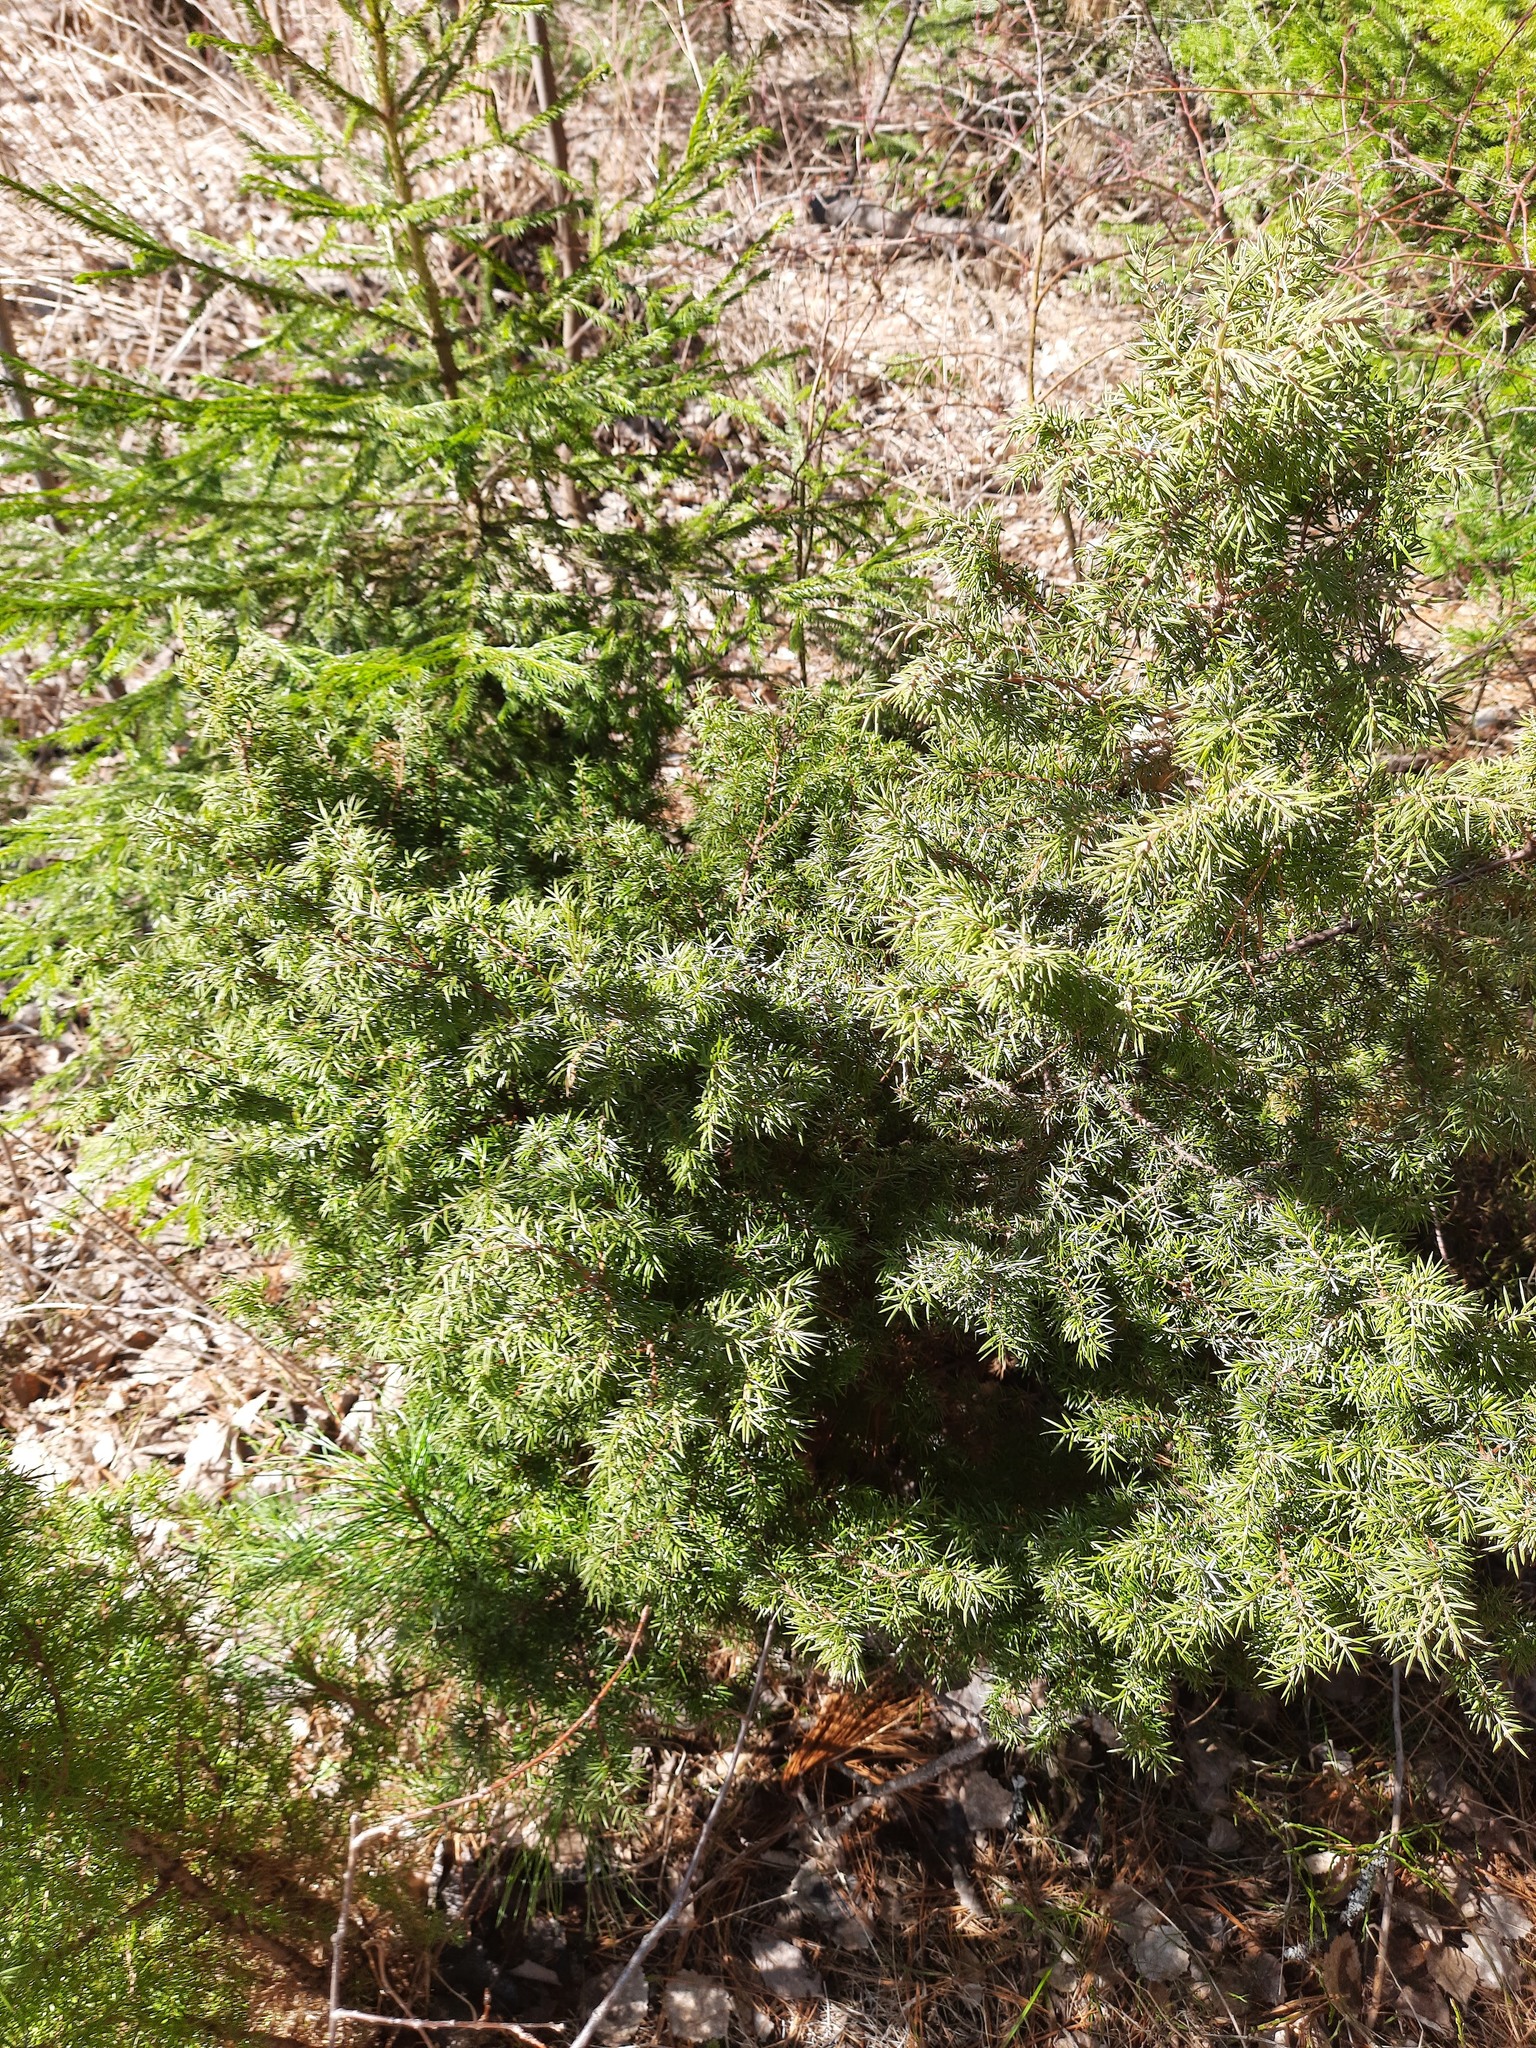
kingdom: Plantae
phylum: Tracheophyta
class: Pinopsida
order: Pinales
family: Cupressaceae
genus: Juniperus
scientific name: Juniperus communis
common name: Common juniper
